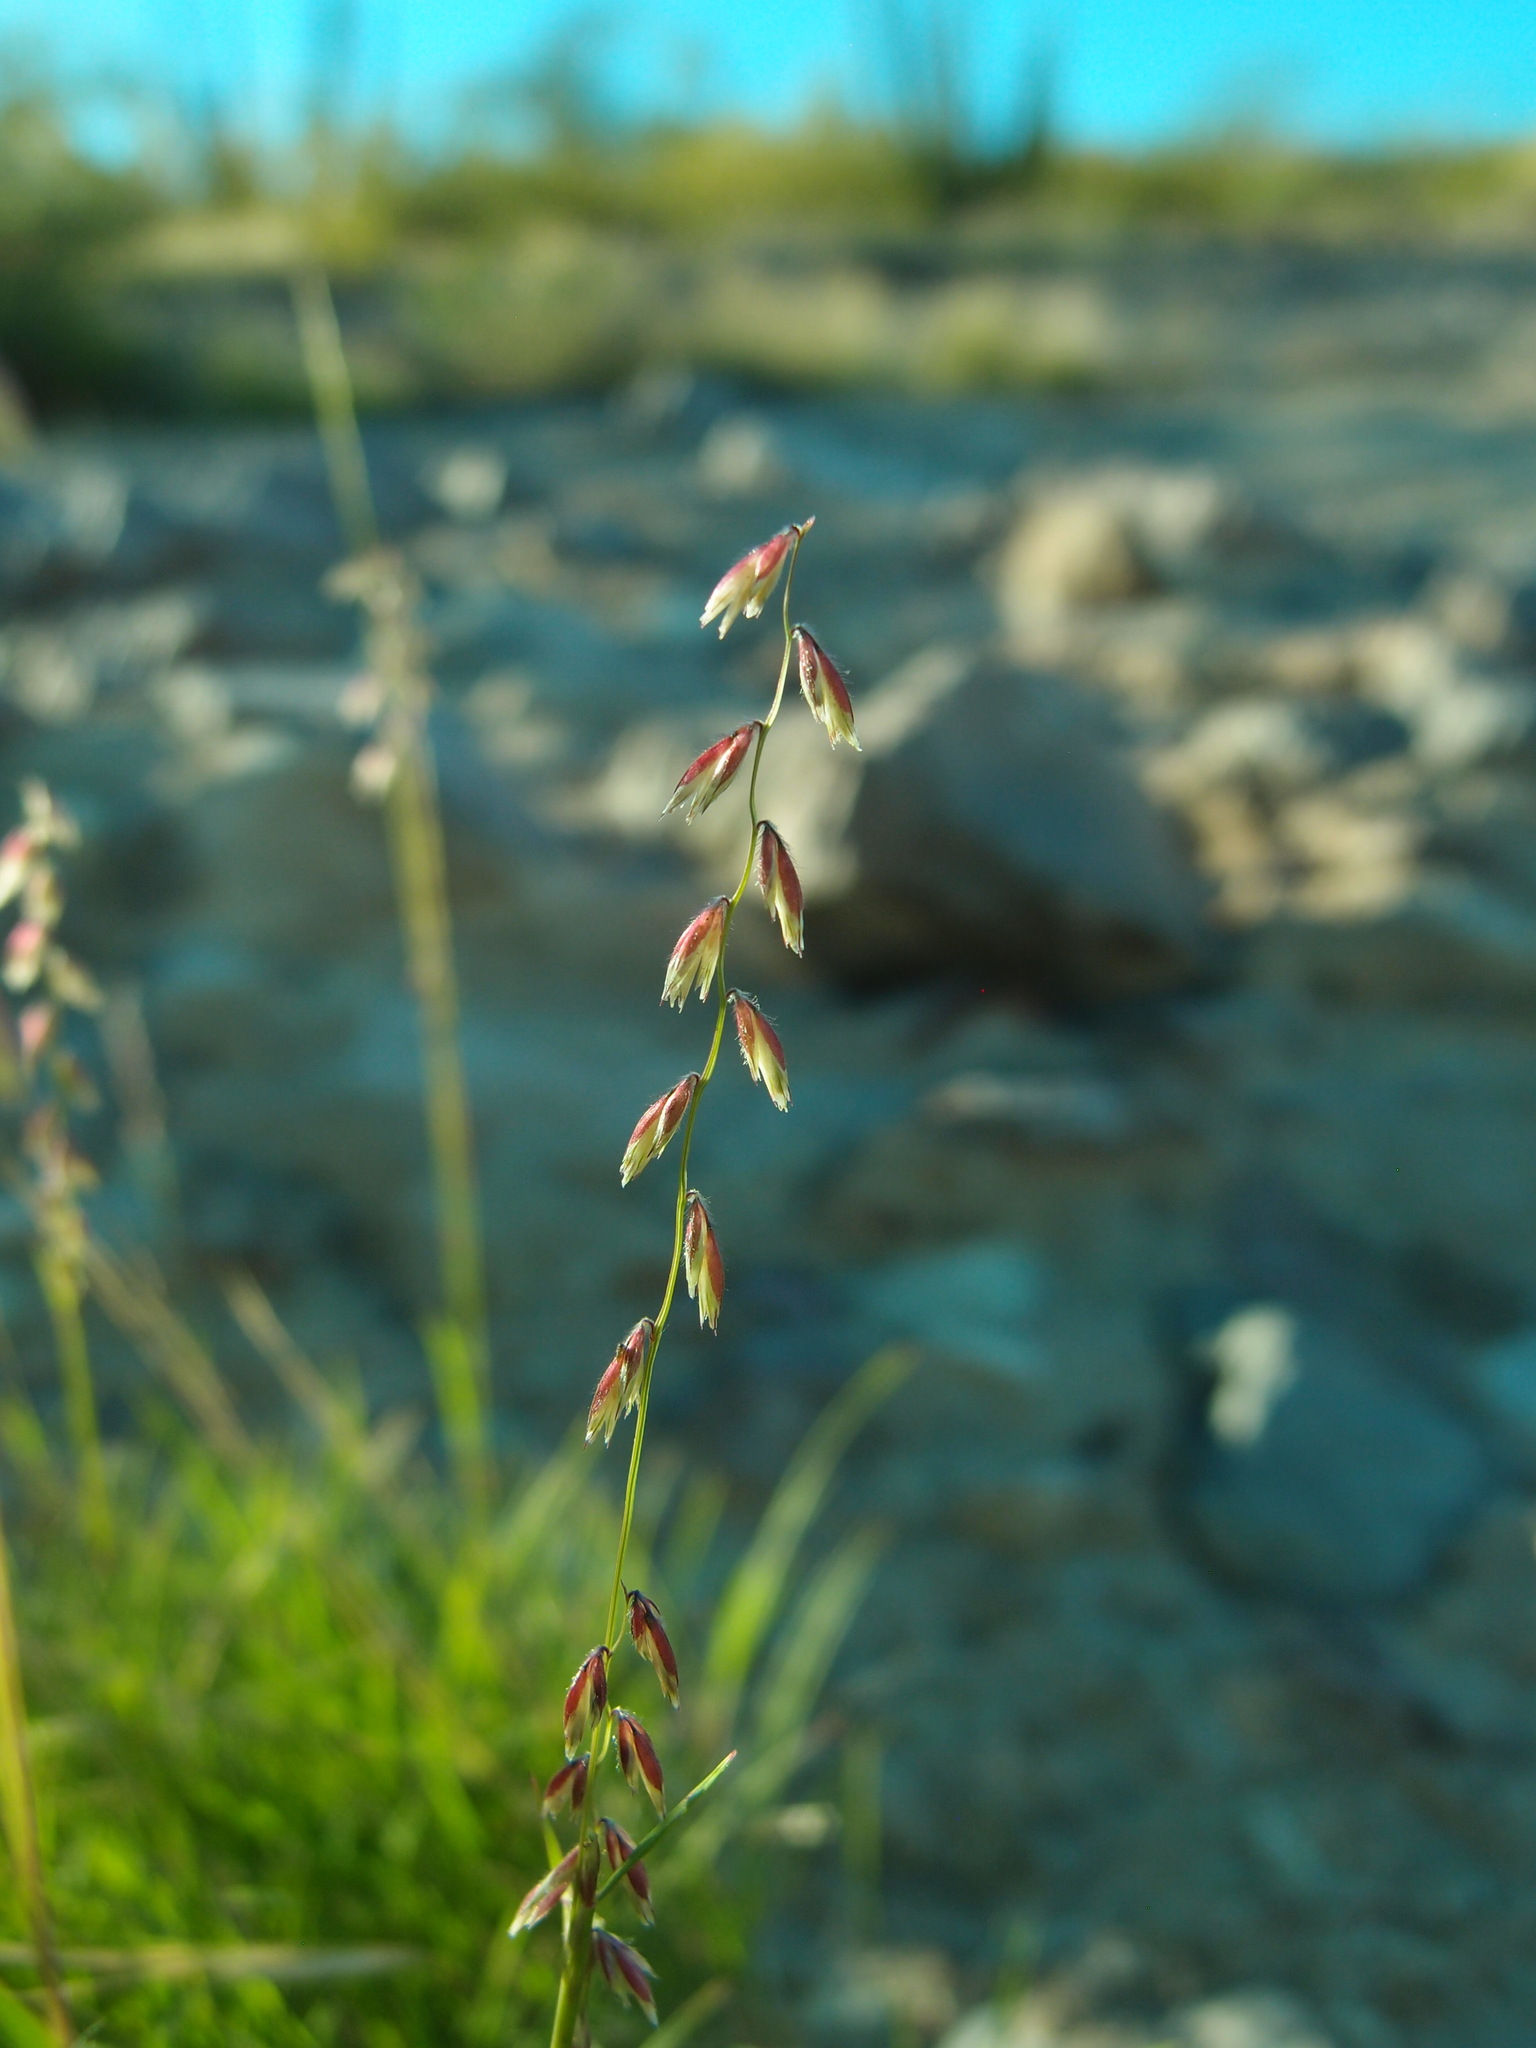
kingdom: Plantae
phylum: Tracheophyta
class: Liliopsida
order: Poales
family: Poaceae
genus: Bouteloua
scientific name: Bouteloua diversispicula
